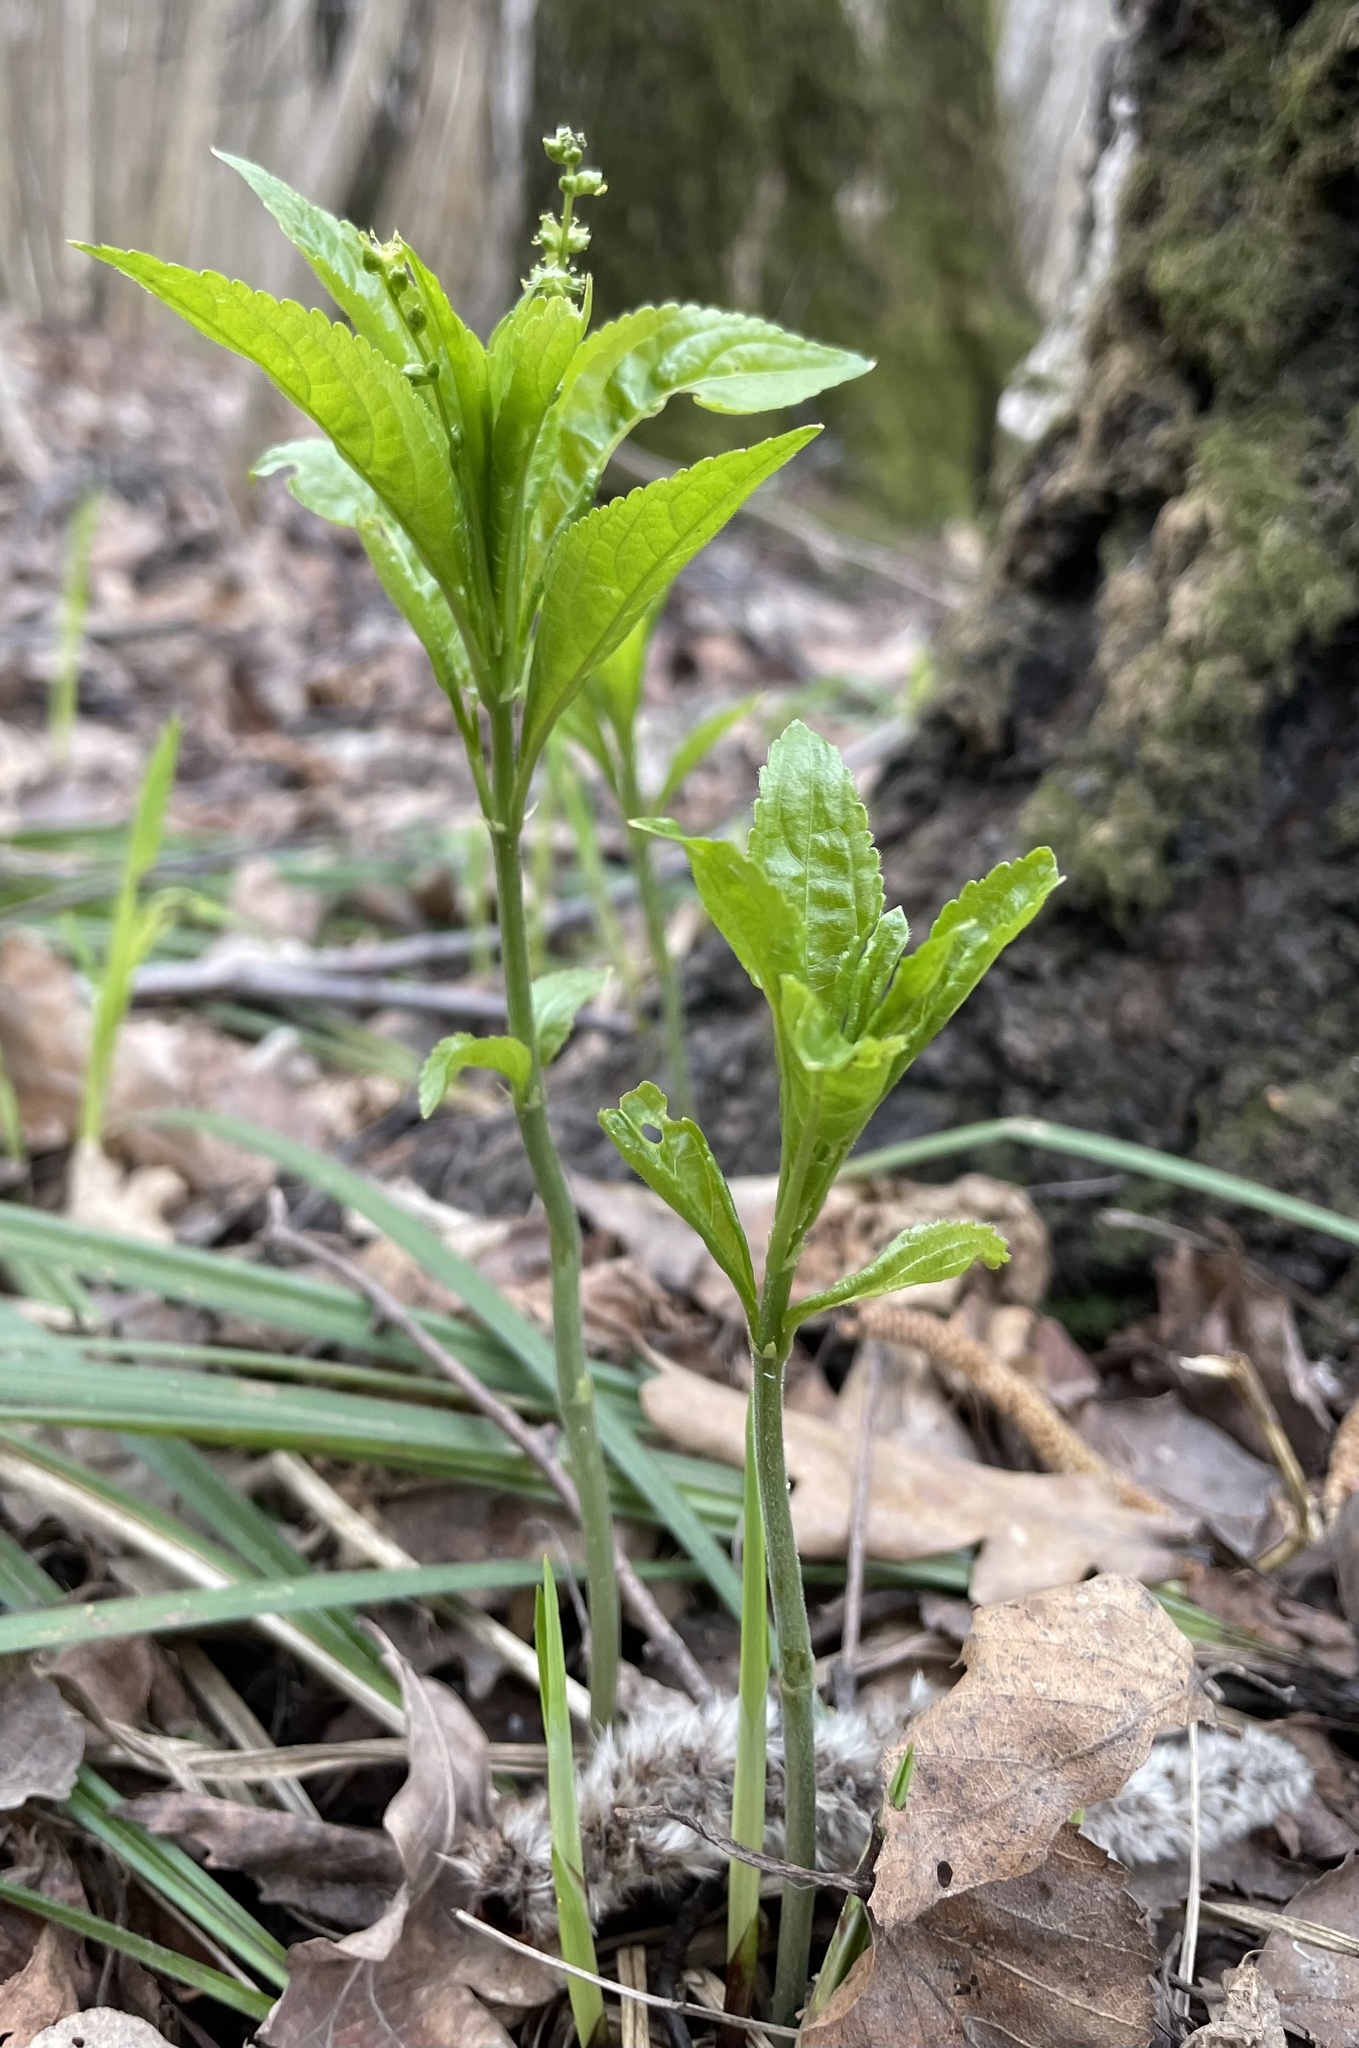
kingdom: Plantae
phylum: Tracheophyta
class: Magnoliopsida
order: Malpighiales
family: Euphorbiaceae
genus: Mercurialis
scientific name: Mercurialis perennis
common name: Dog mercury
